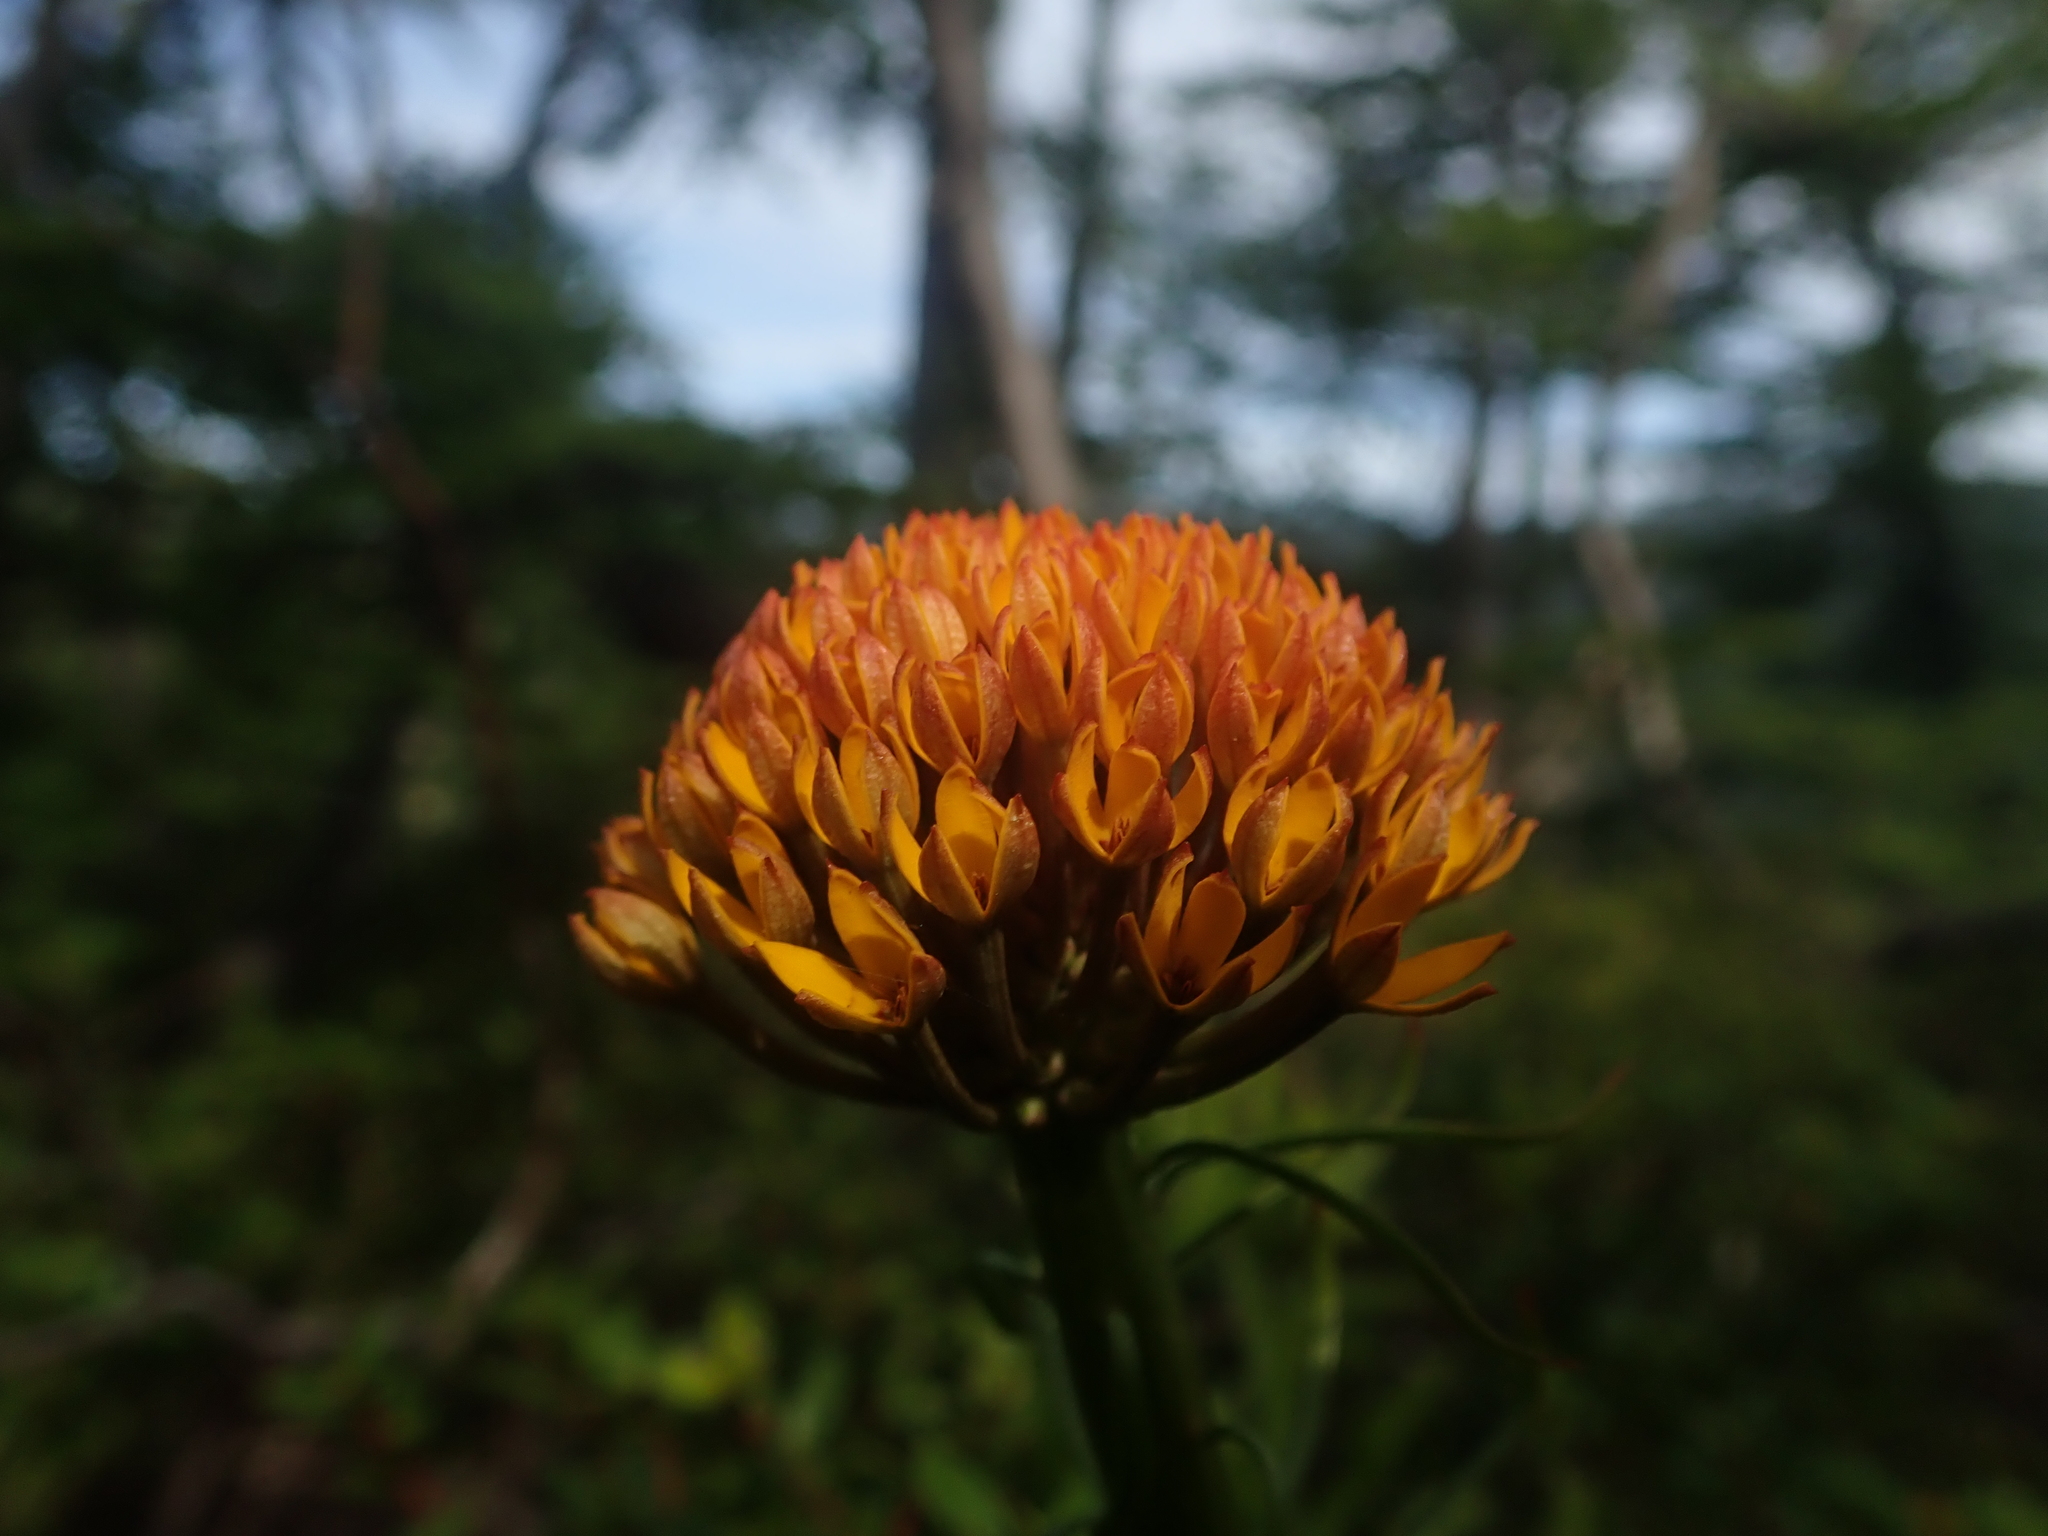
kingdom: Plantae
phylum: Tracheophyta
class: Magnoliopsida
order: Santalales
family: Schoepfiaceae
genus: Quinchamalium
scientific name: Quinchamalium chilense
